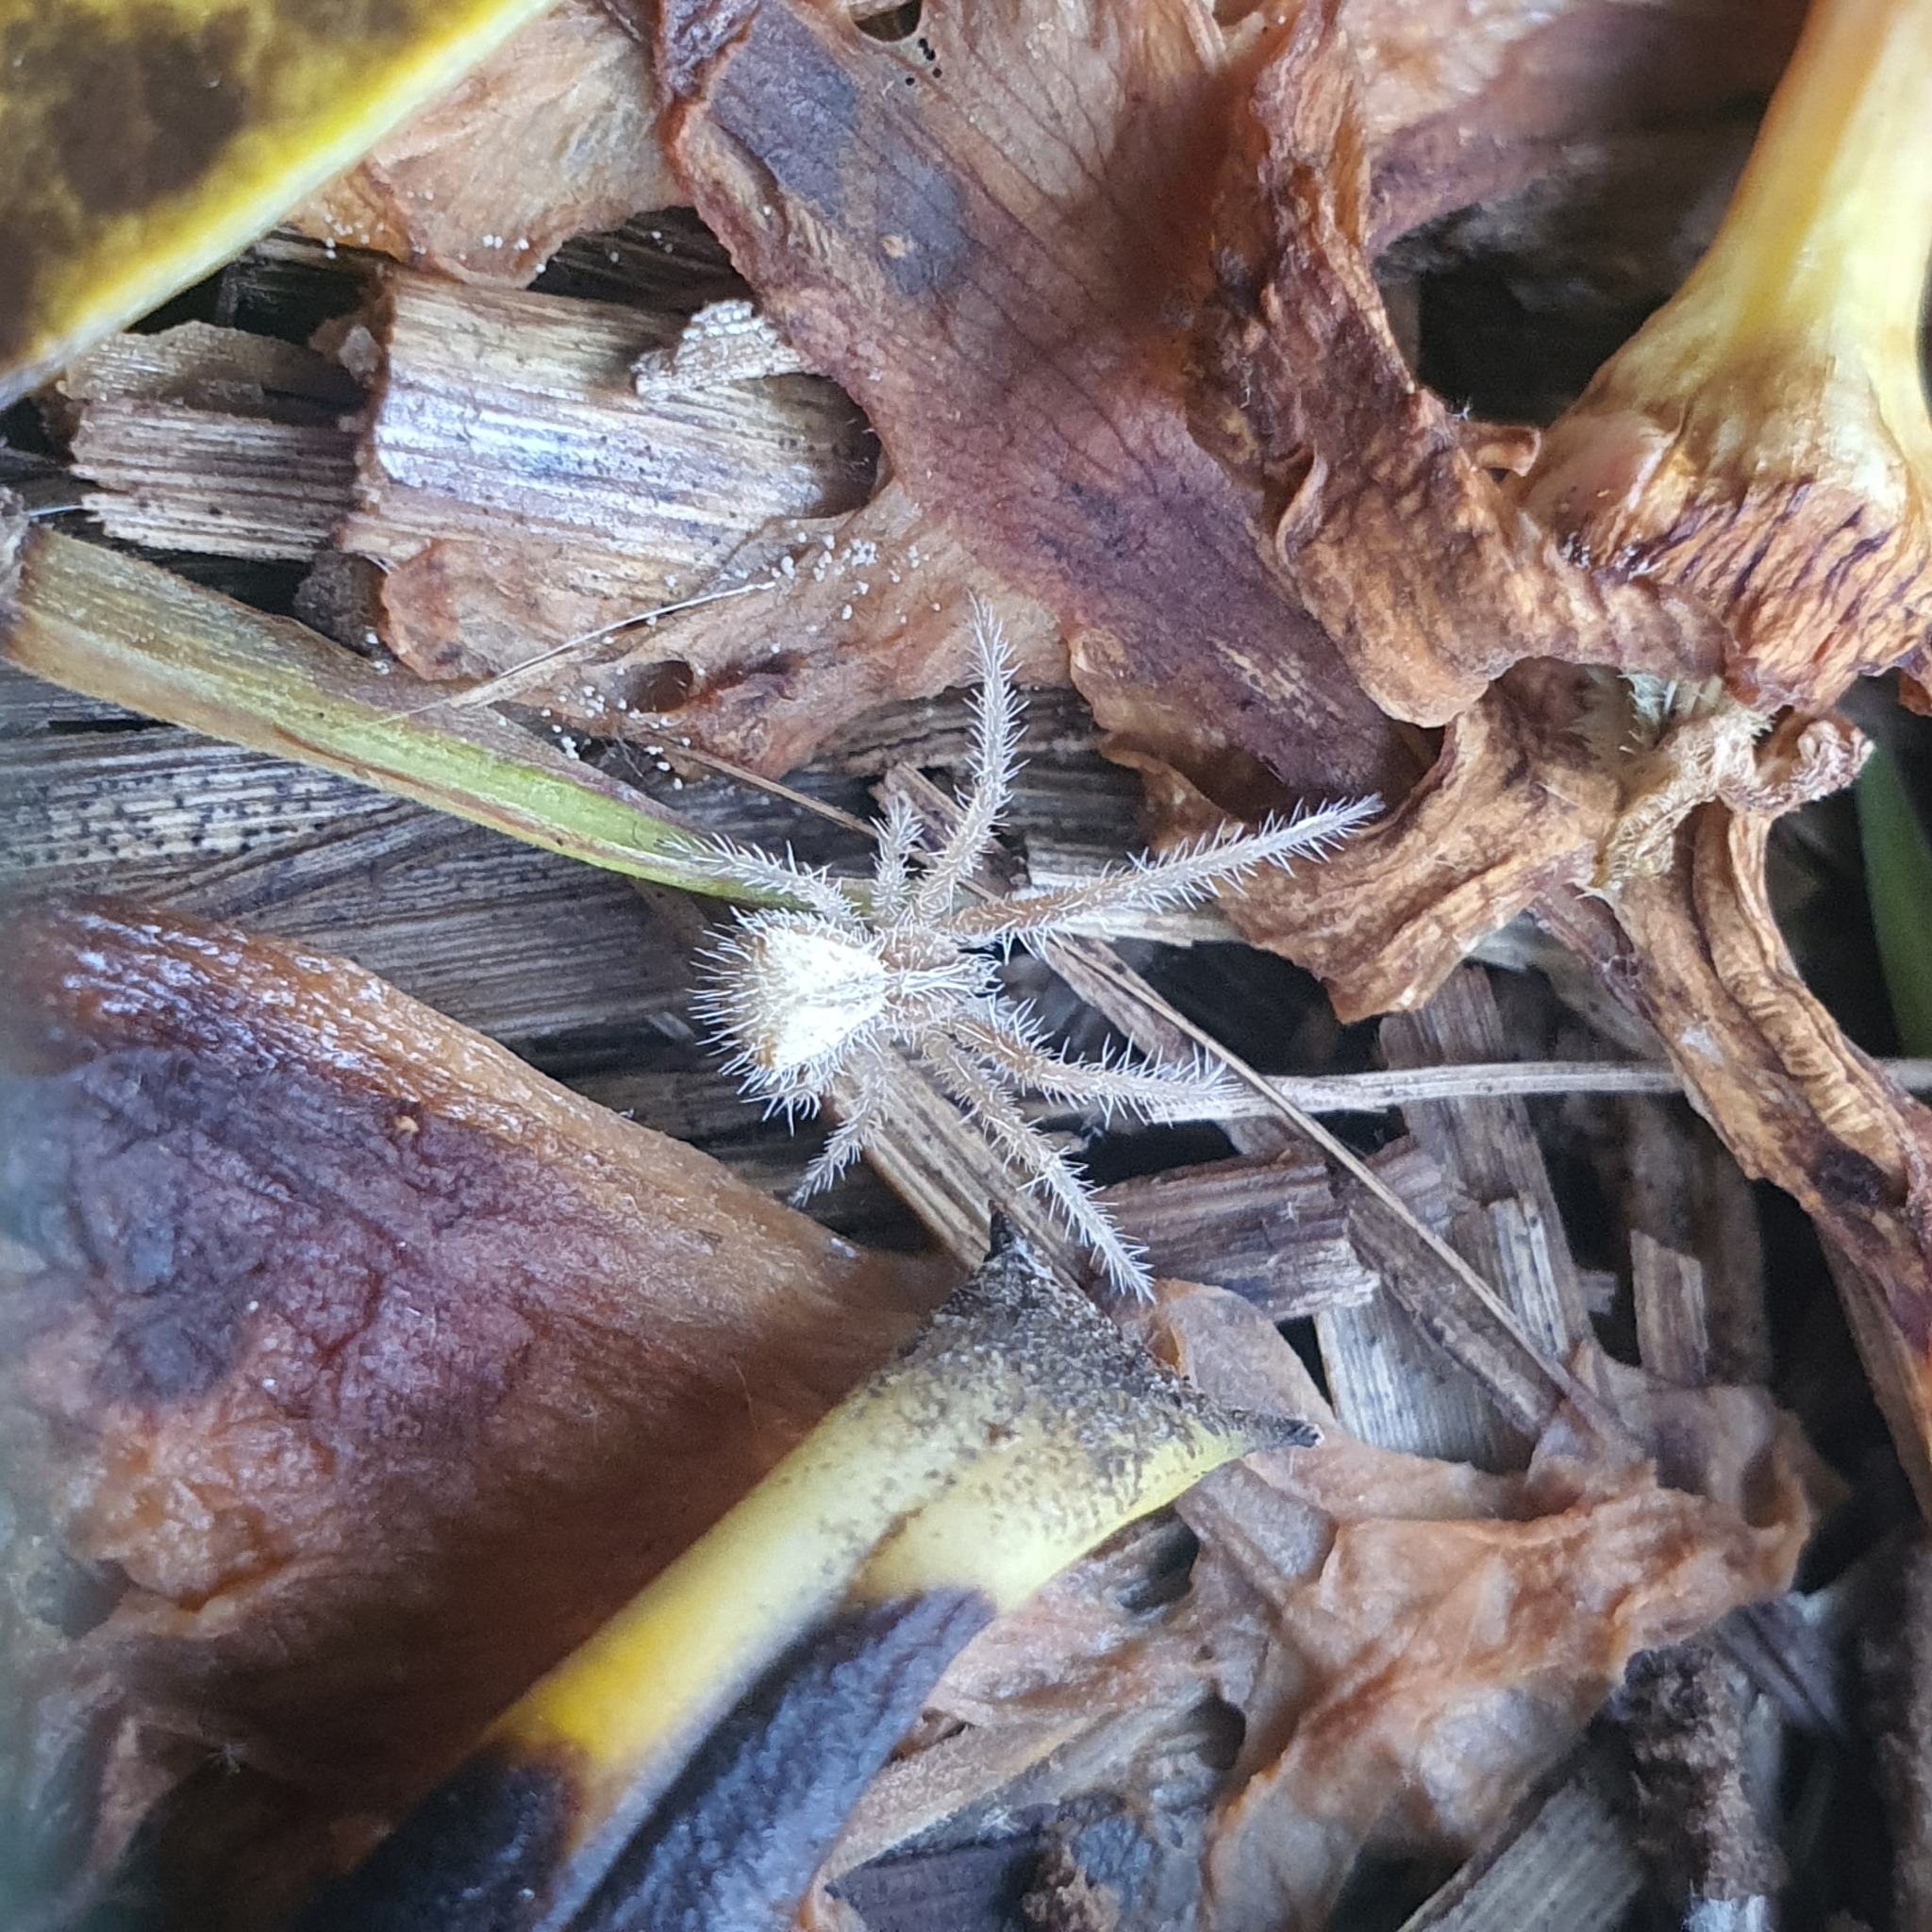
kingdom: Animalia
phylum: Arthropoda
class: Arachnida
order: Araneae
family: Thomisidae
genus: Sidymella
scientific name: Sidymella hirsuta
